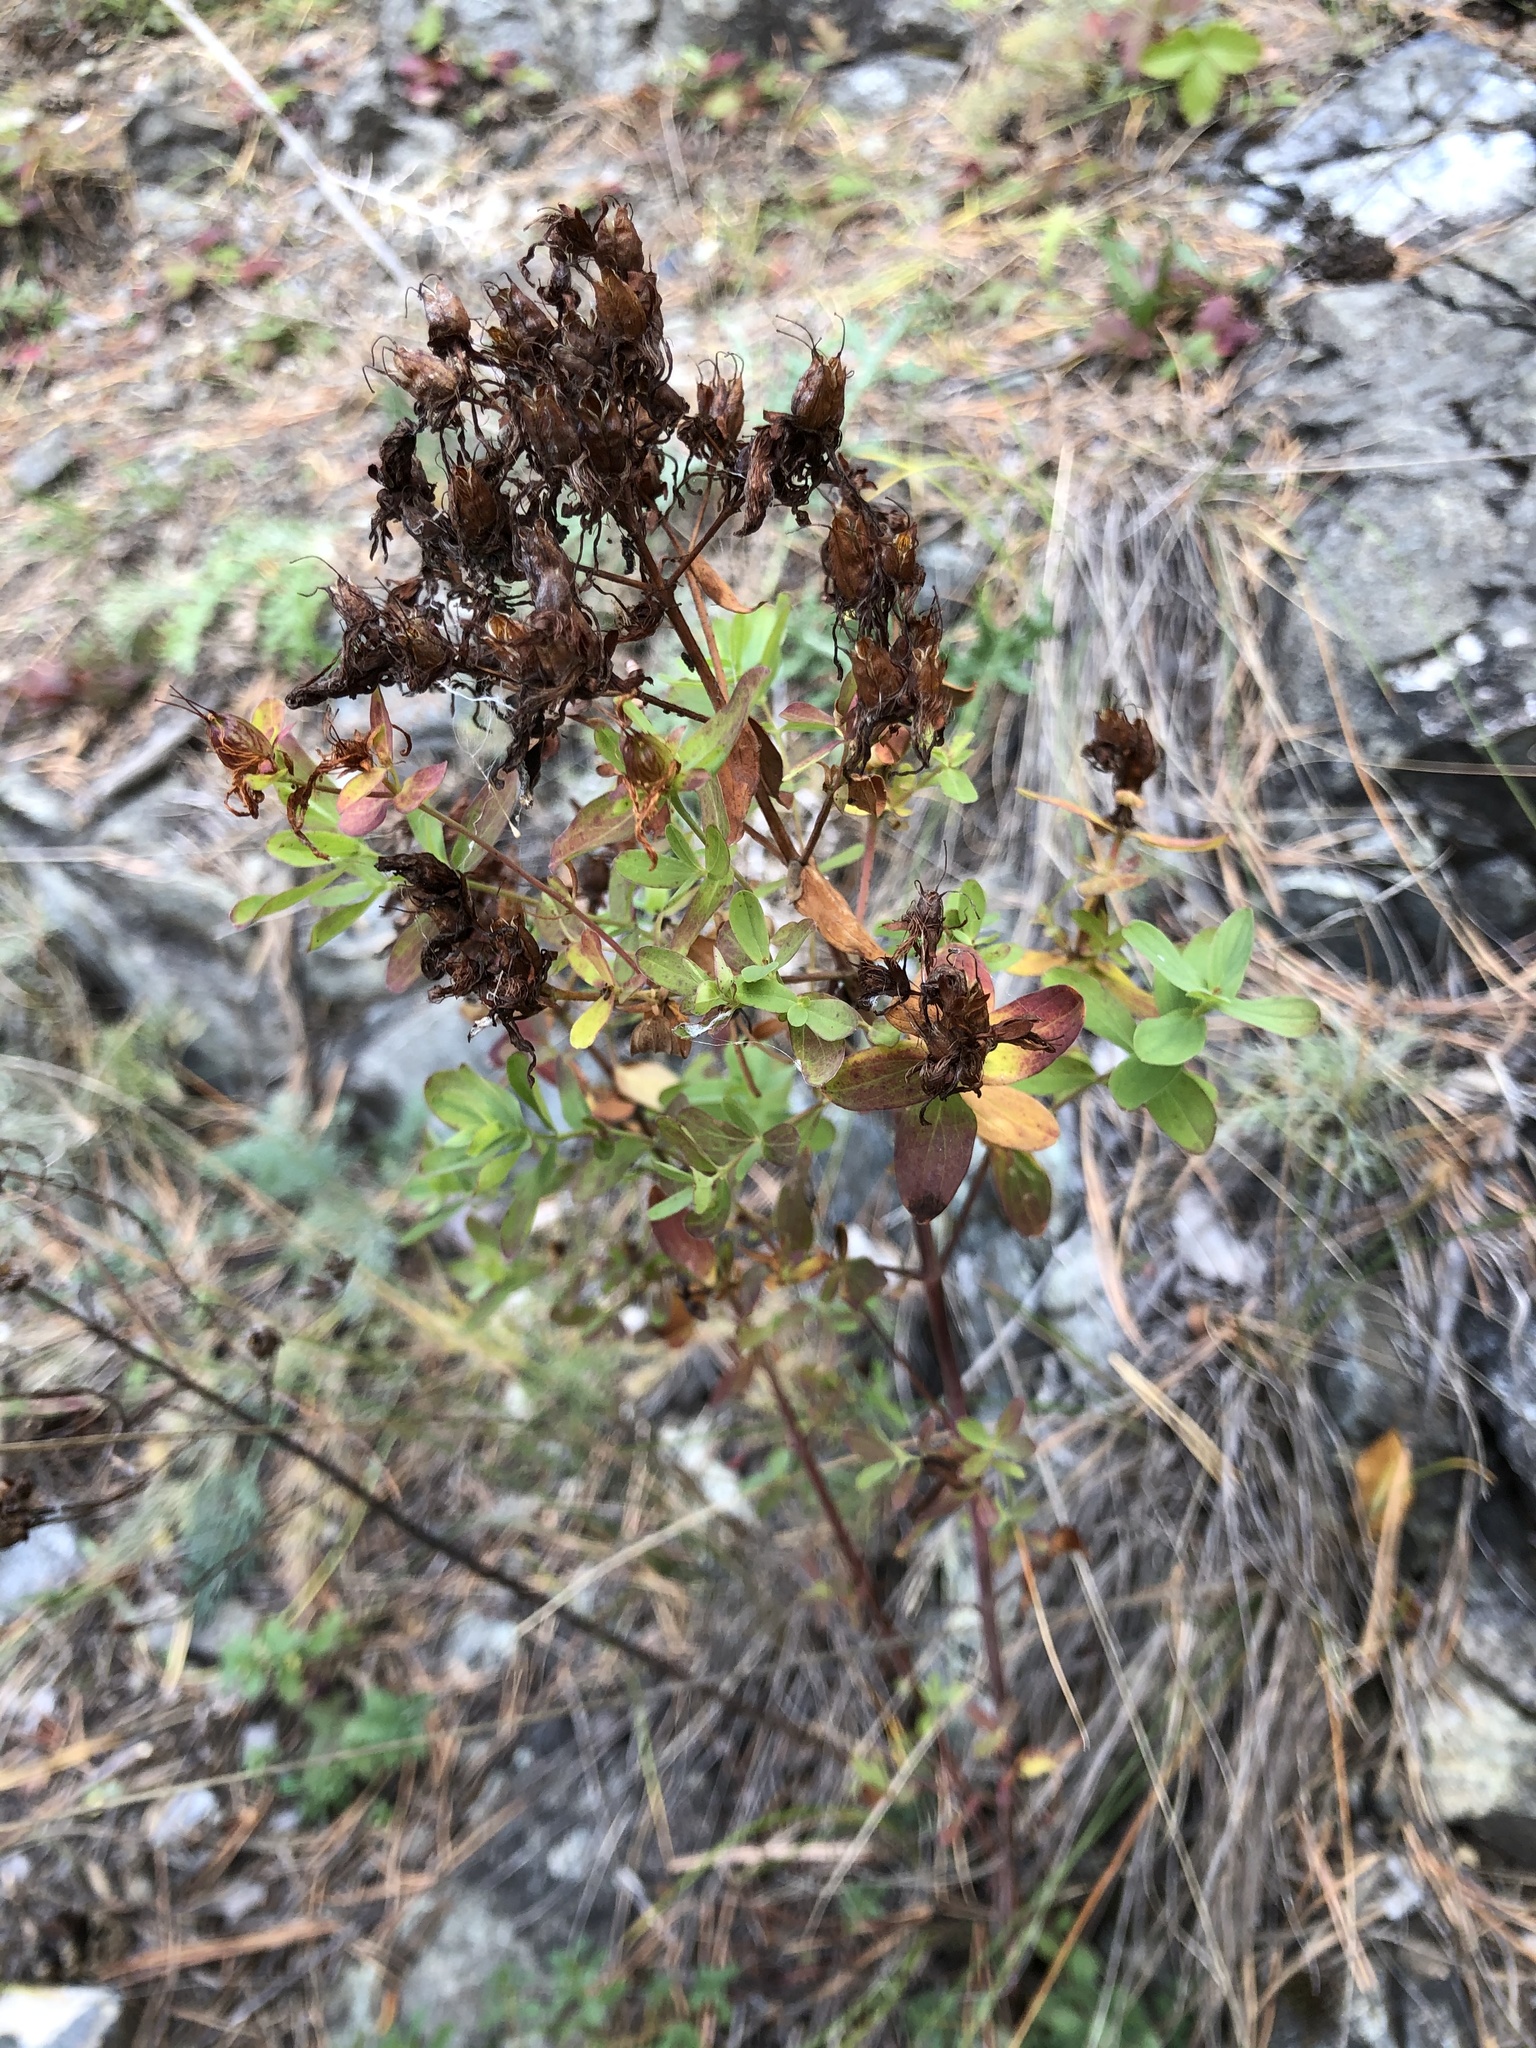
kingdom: Plantae
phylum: Tracheophyta
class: Magnoliopsida
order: Malpighiales
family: Hypericaceae
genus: Hypericum
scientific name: Hypericum perforatum
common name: Common st. johnswort
